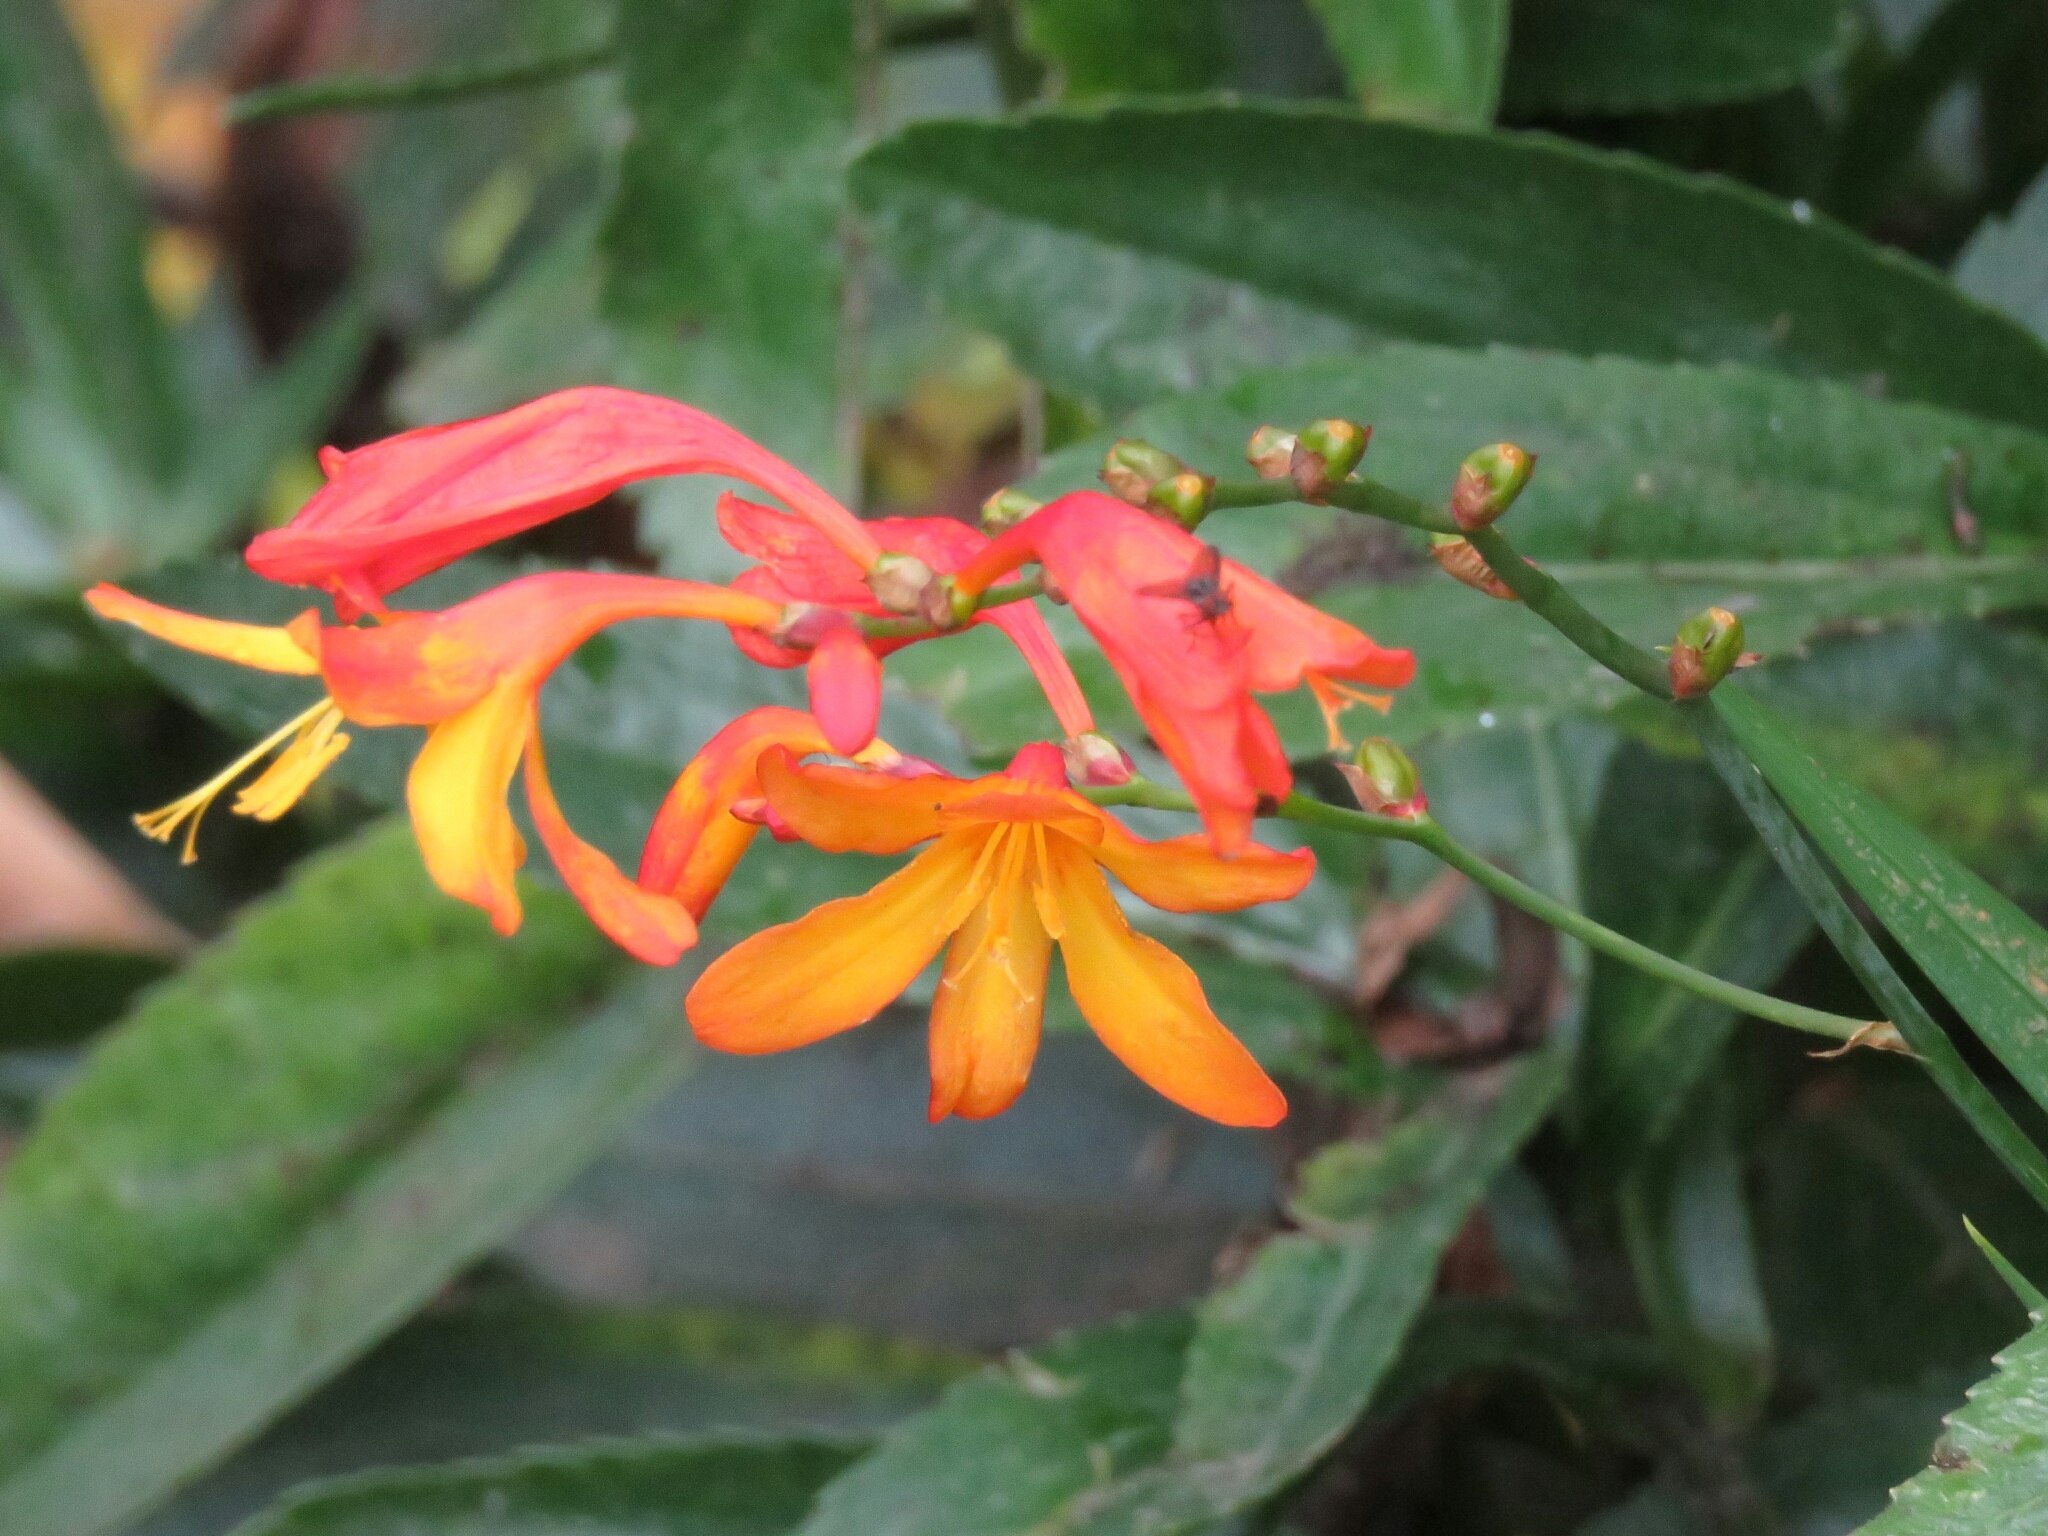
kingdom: Plantae
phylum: Tracheophyta
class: Liliopsida
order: Asparagales
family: Iridaceae
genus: Crocosmia
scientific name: Crocosmia crocosmiiflora
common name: Montbretia
